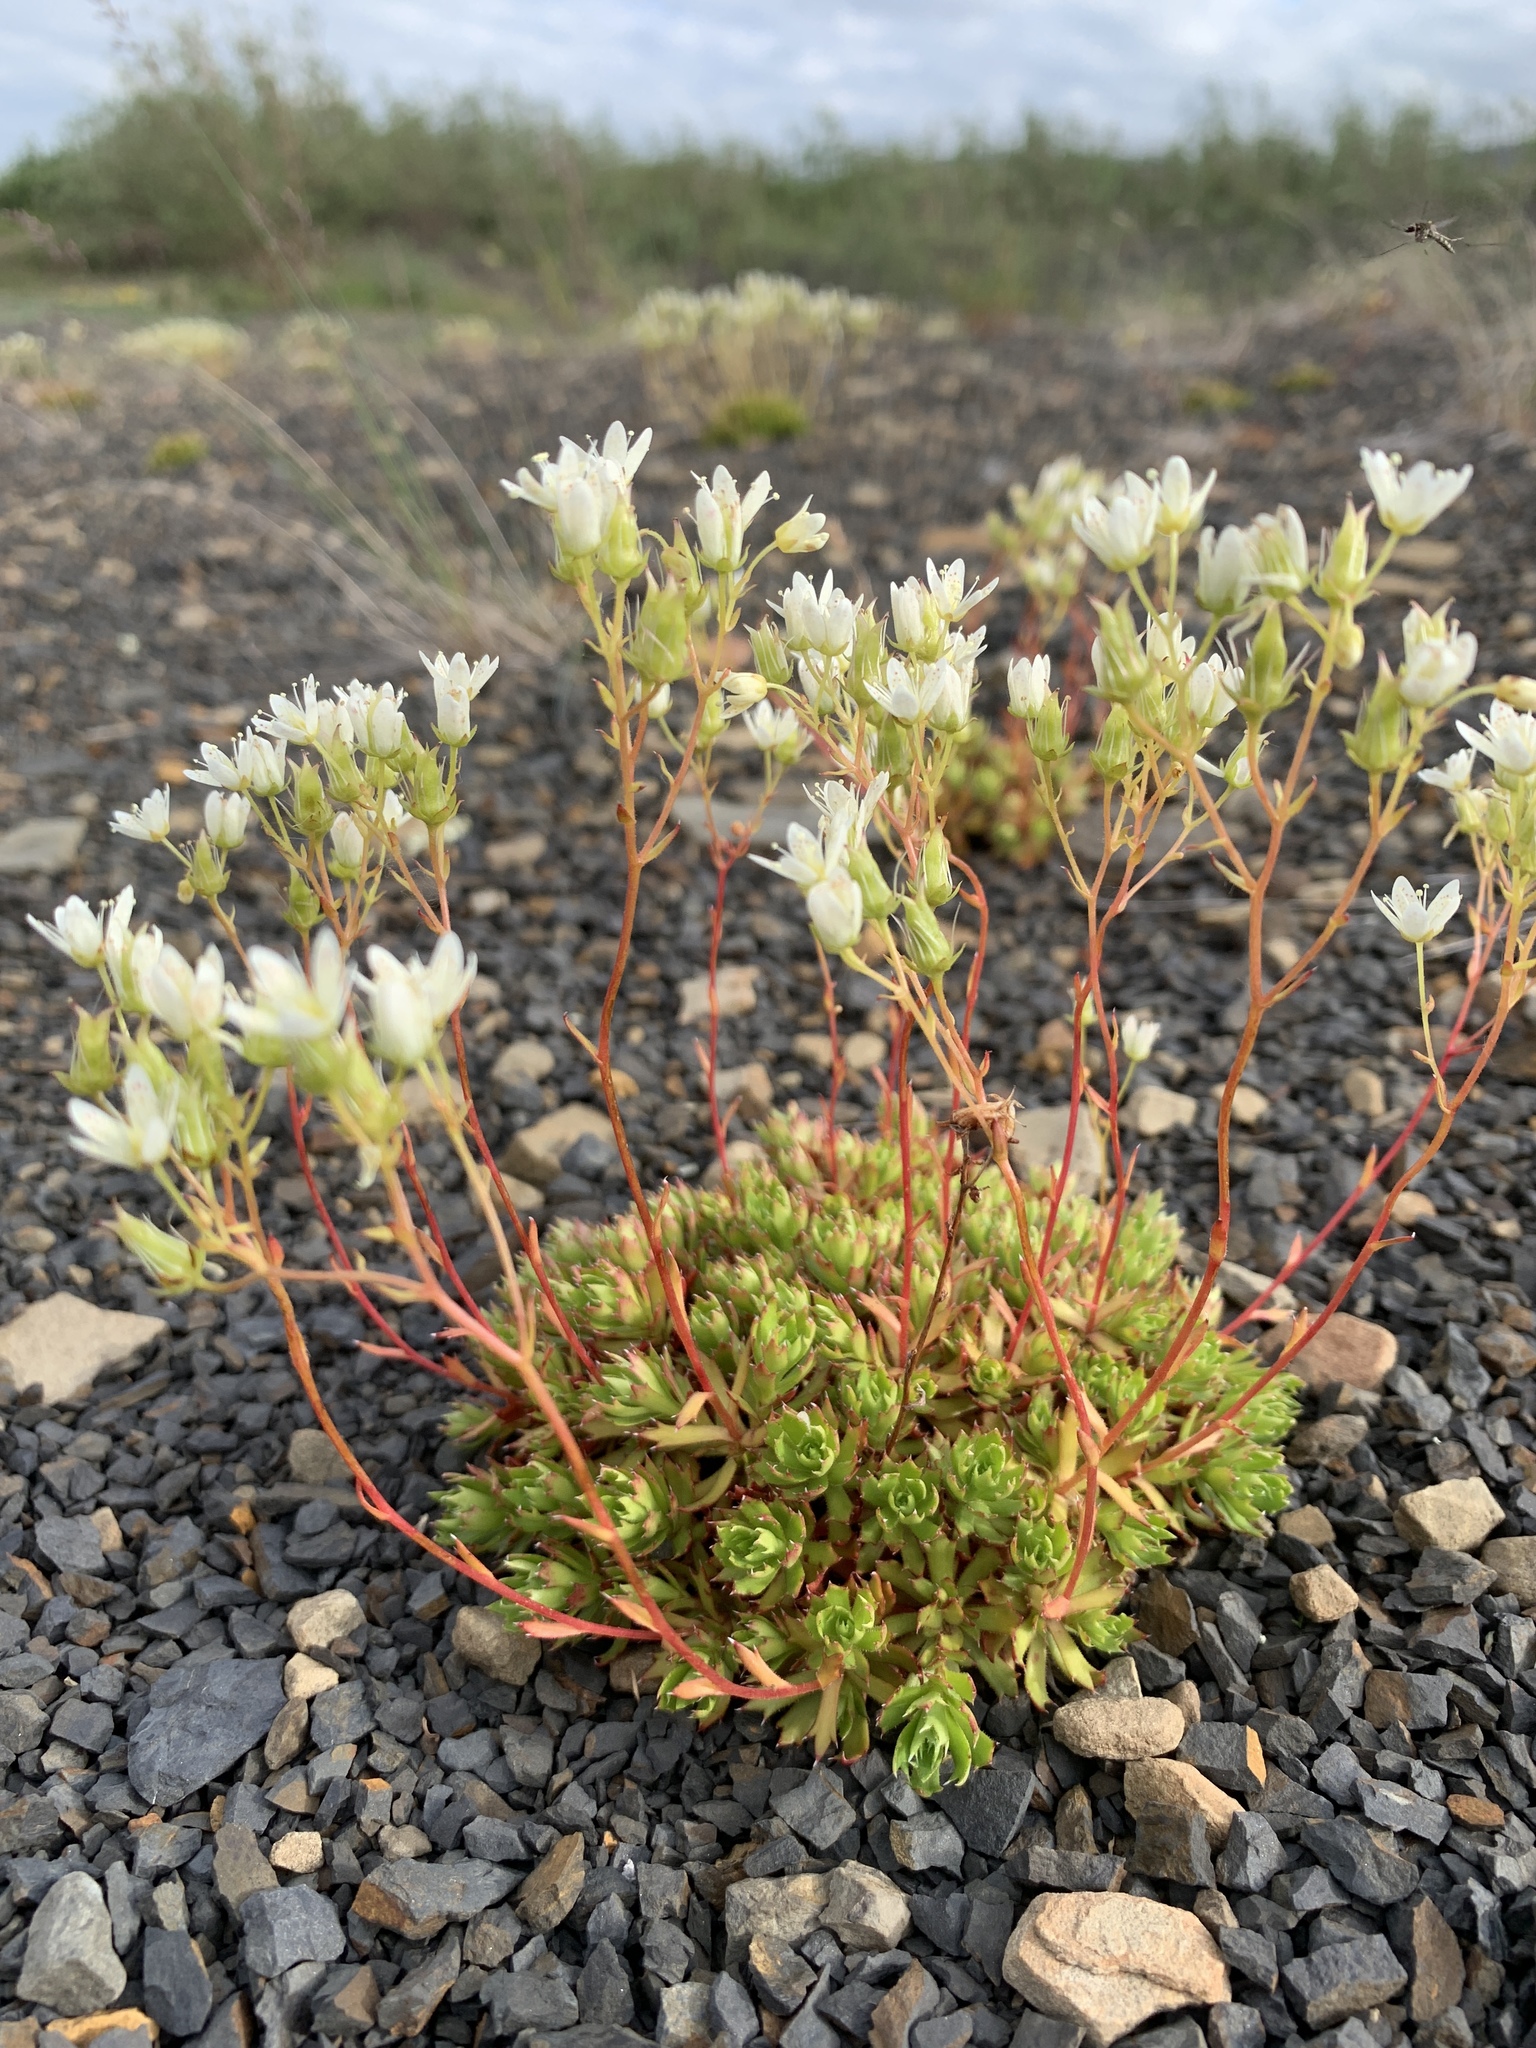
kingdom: Plantae
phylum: Tracheophyta
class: Magnoliopsida
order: Saxifragales
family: Saxifragaceae
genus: Saxifraga
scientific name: Saxifraga tricuspidata
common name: Prickly saxifrage
